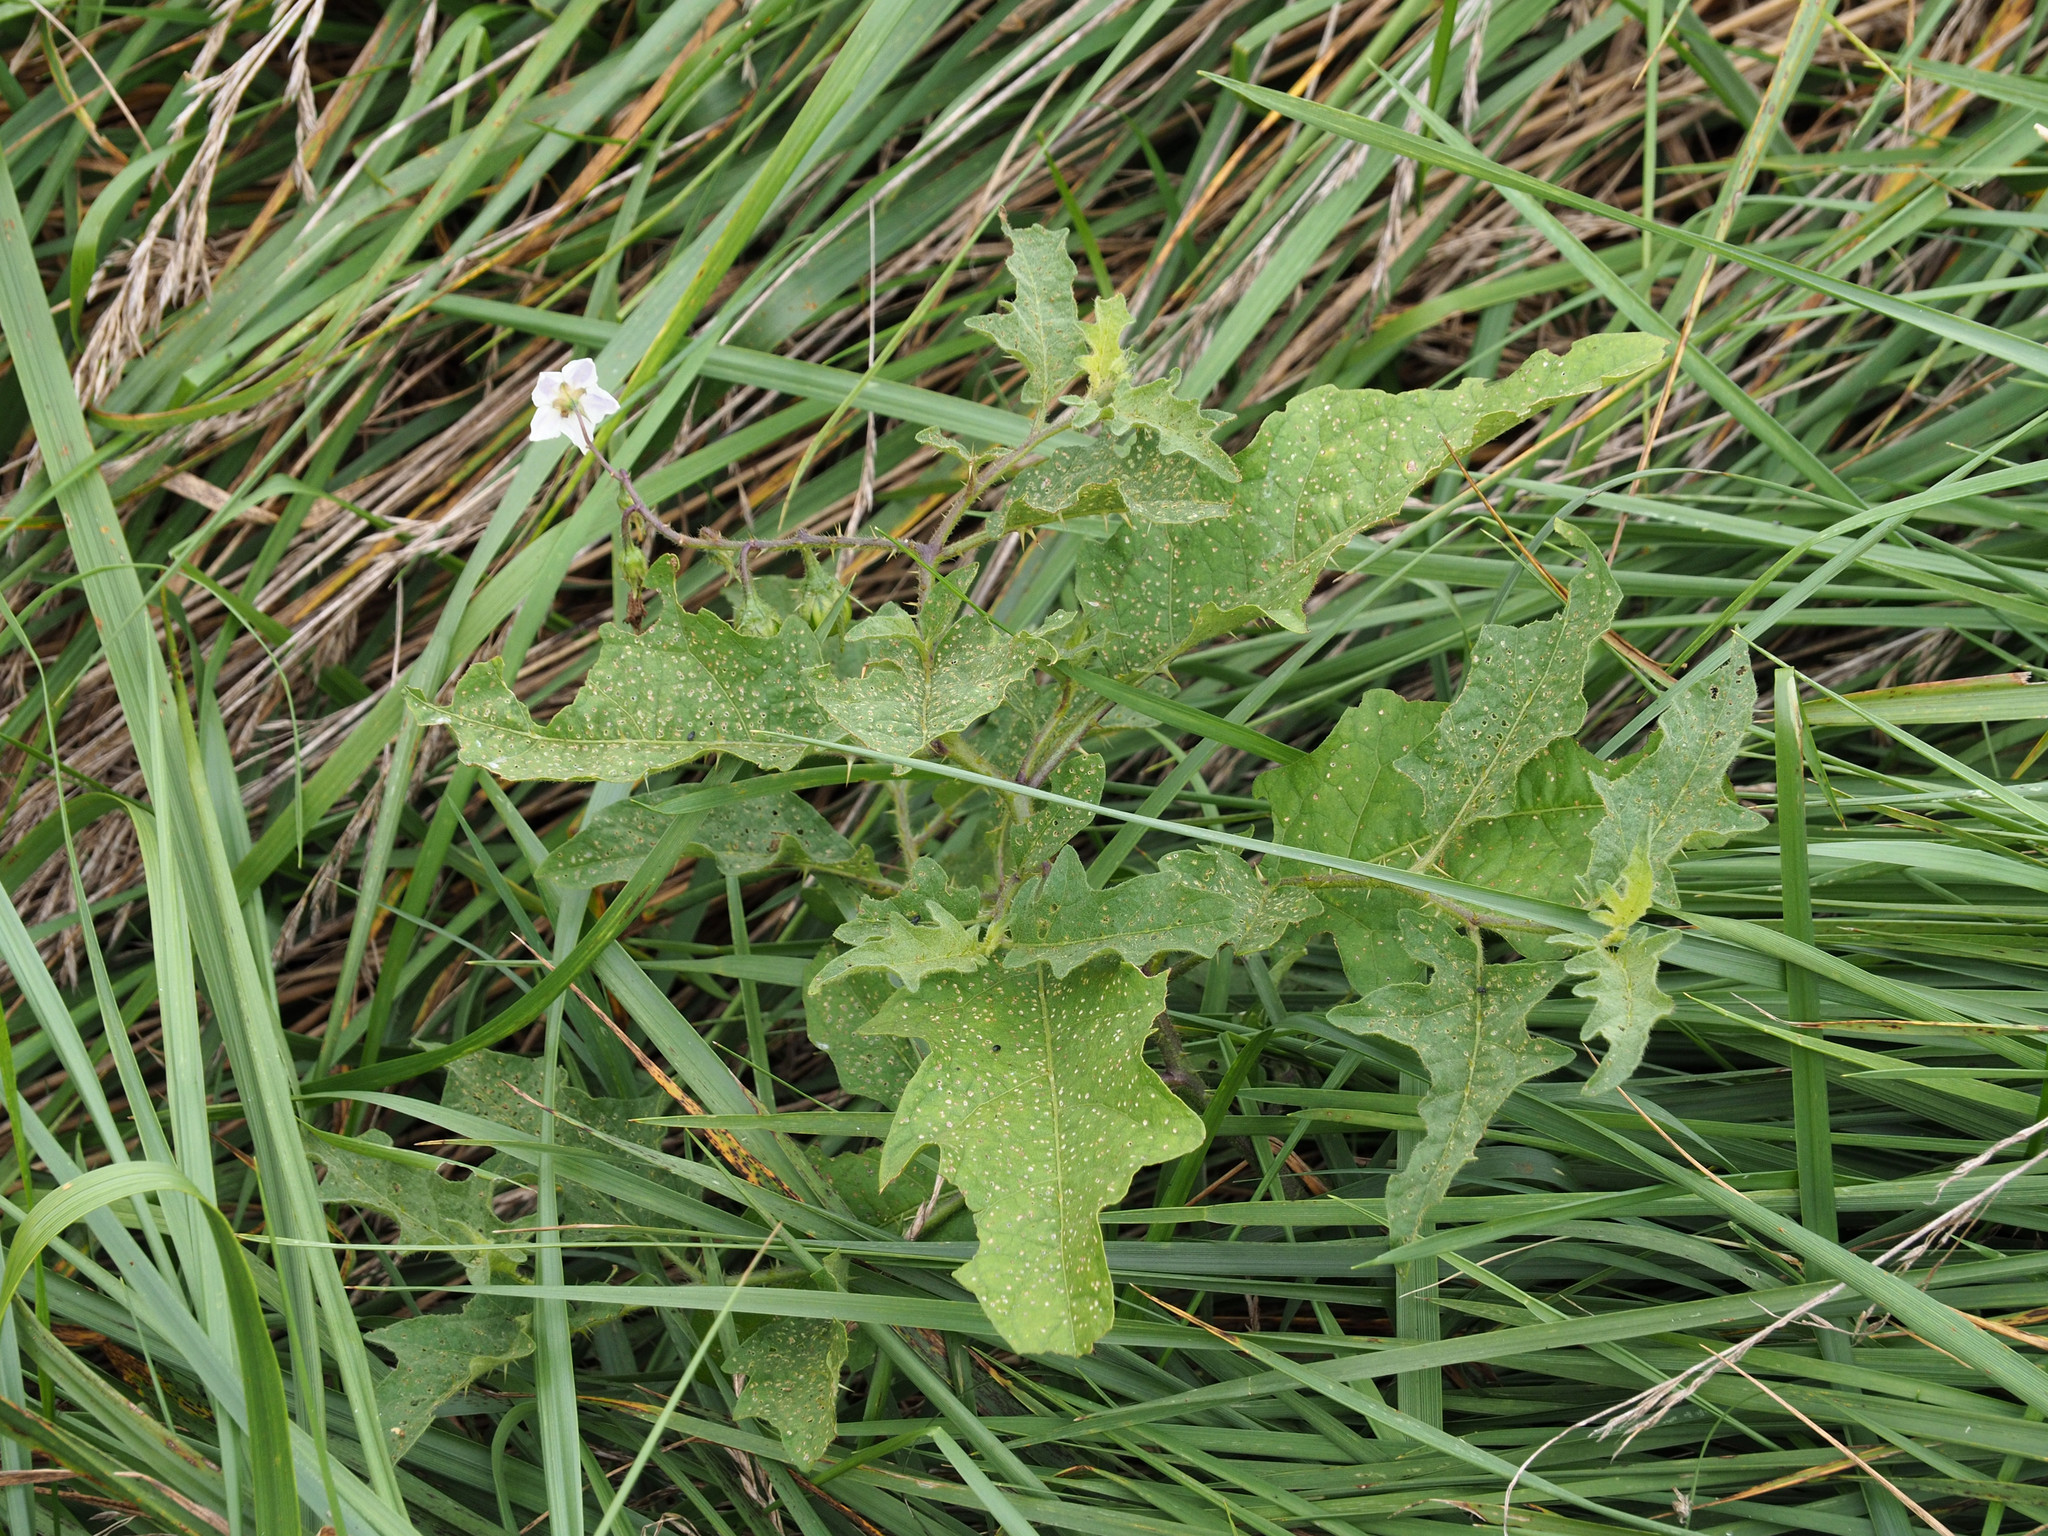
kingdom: Plantae
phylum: Tracheophyta
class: Magnoliopsida
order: Solanales
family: Solanaceae
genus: Solanum
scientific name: Solanum carolinense
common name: Horse-nettle
